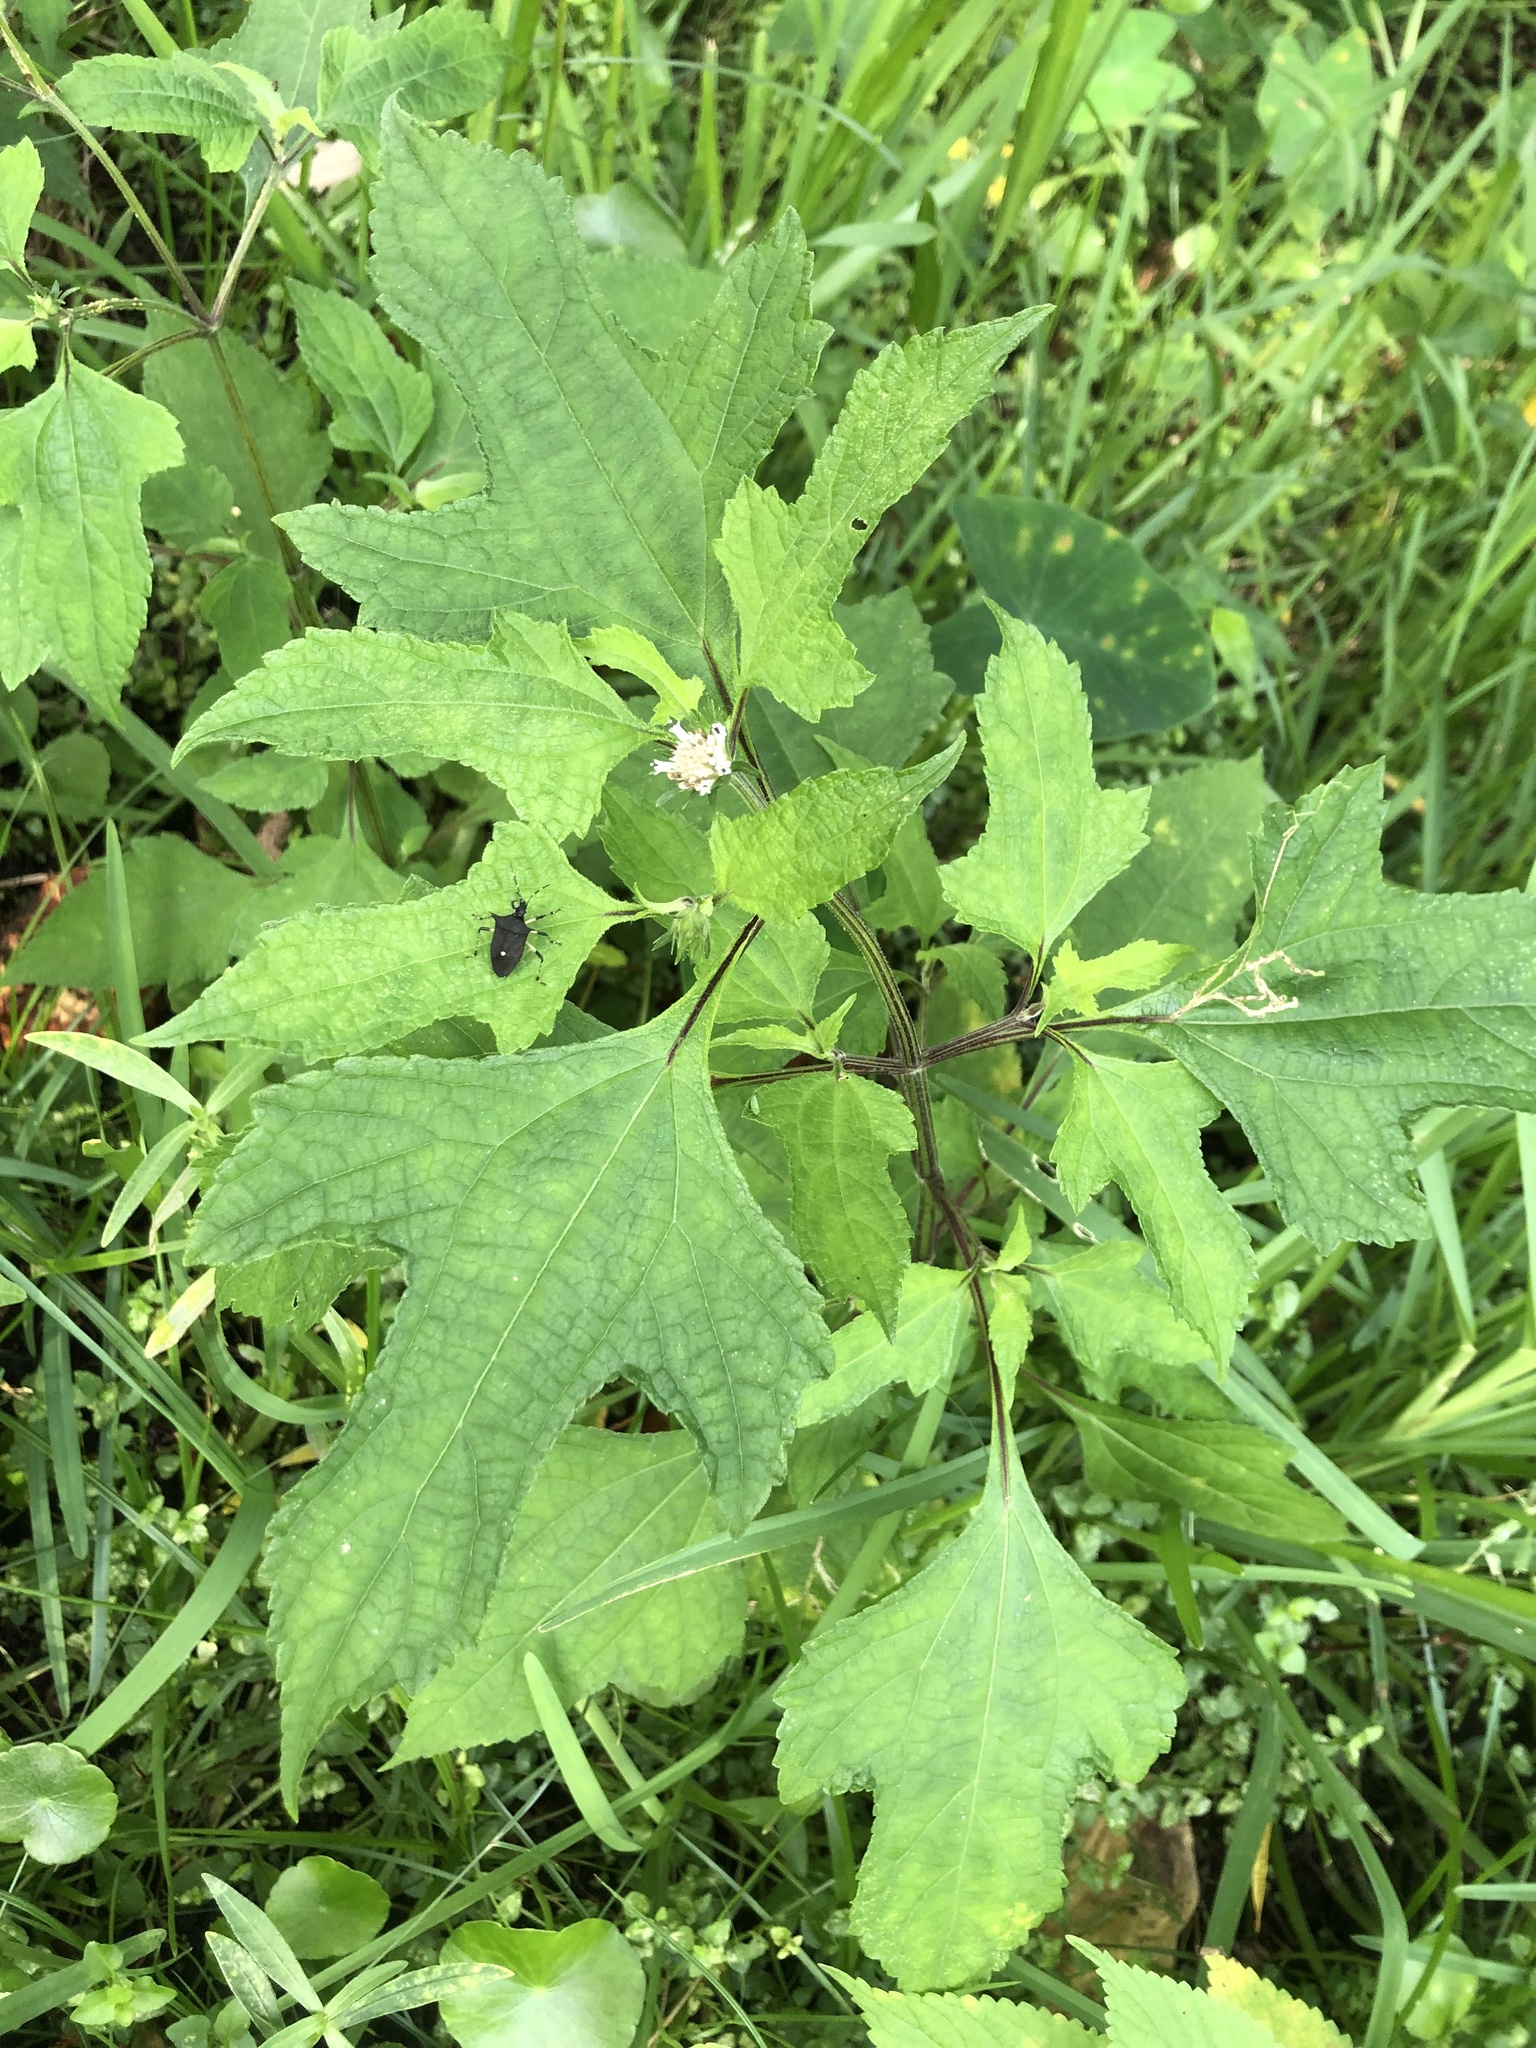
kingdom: Plantae
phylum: Tracheophyta
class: Magnoliopsida
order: Asterales
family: Asteraceae
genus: Melanthera
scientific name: Melanthera nivea
